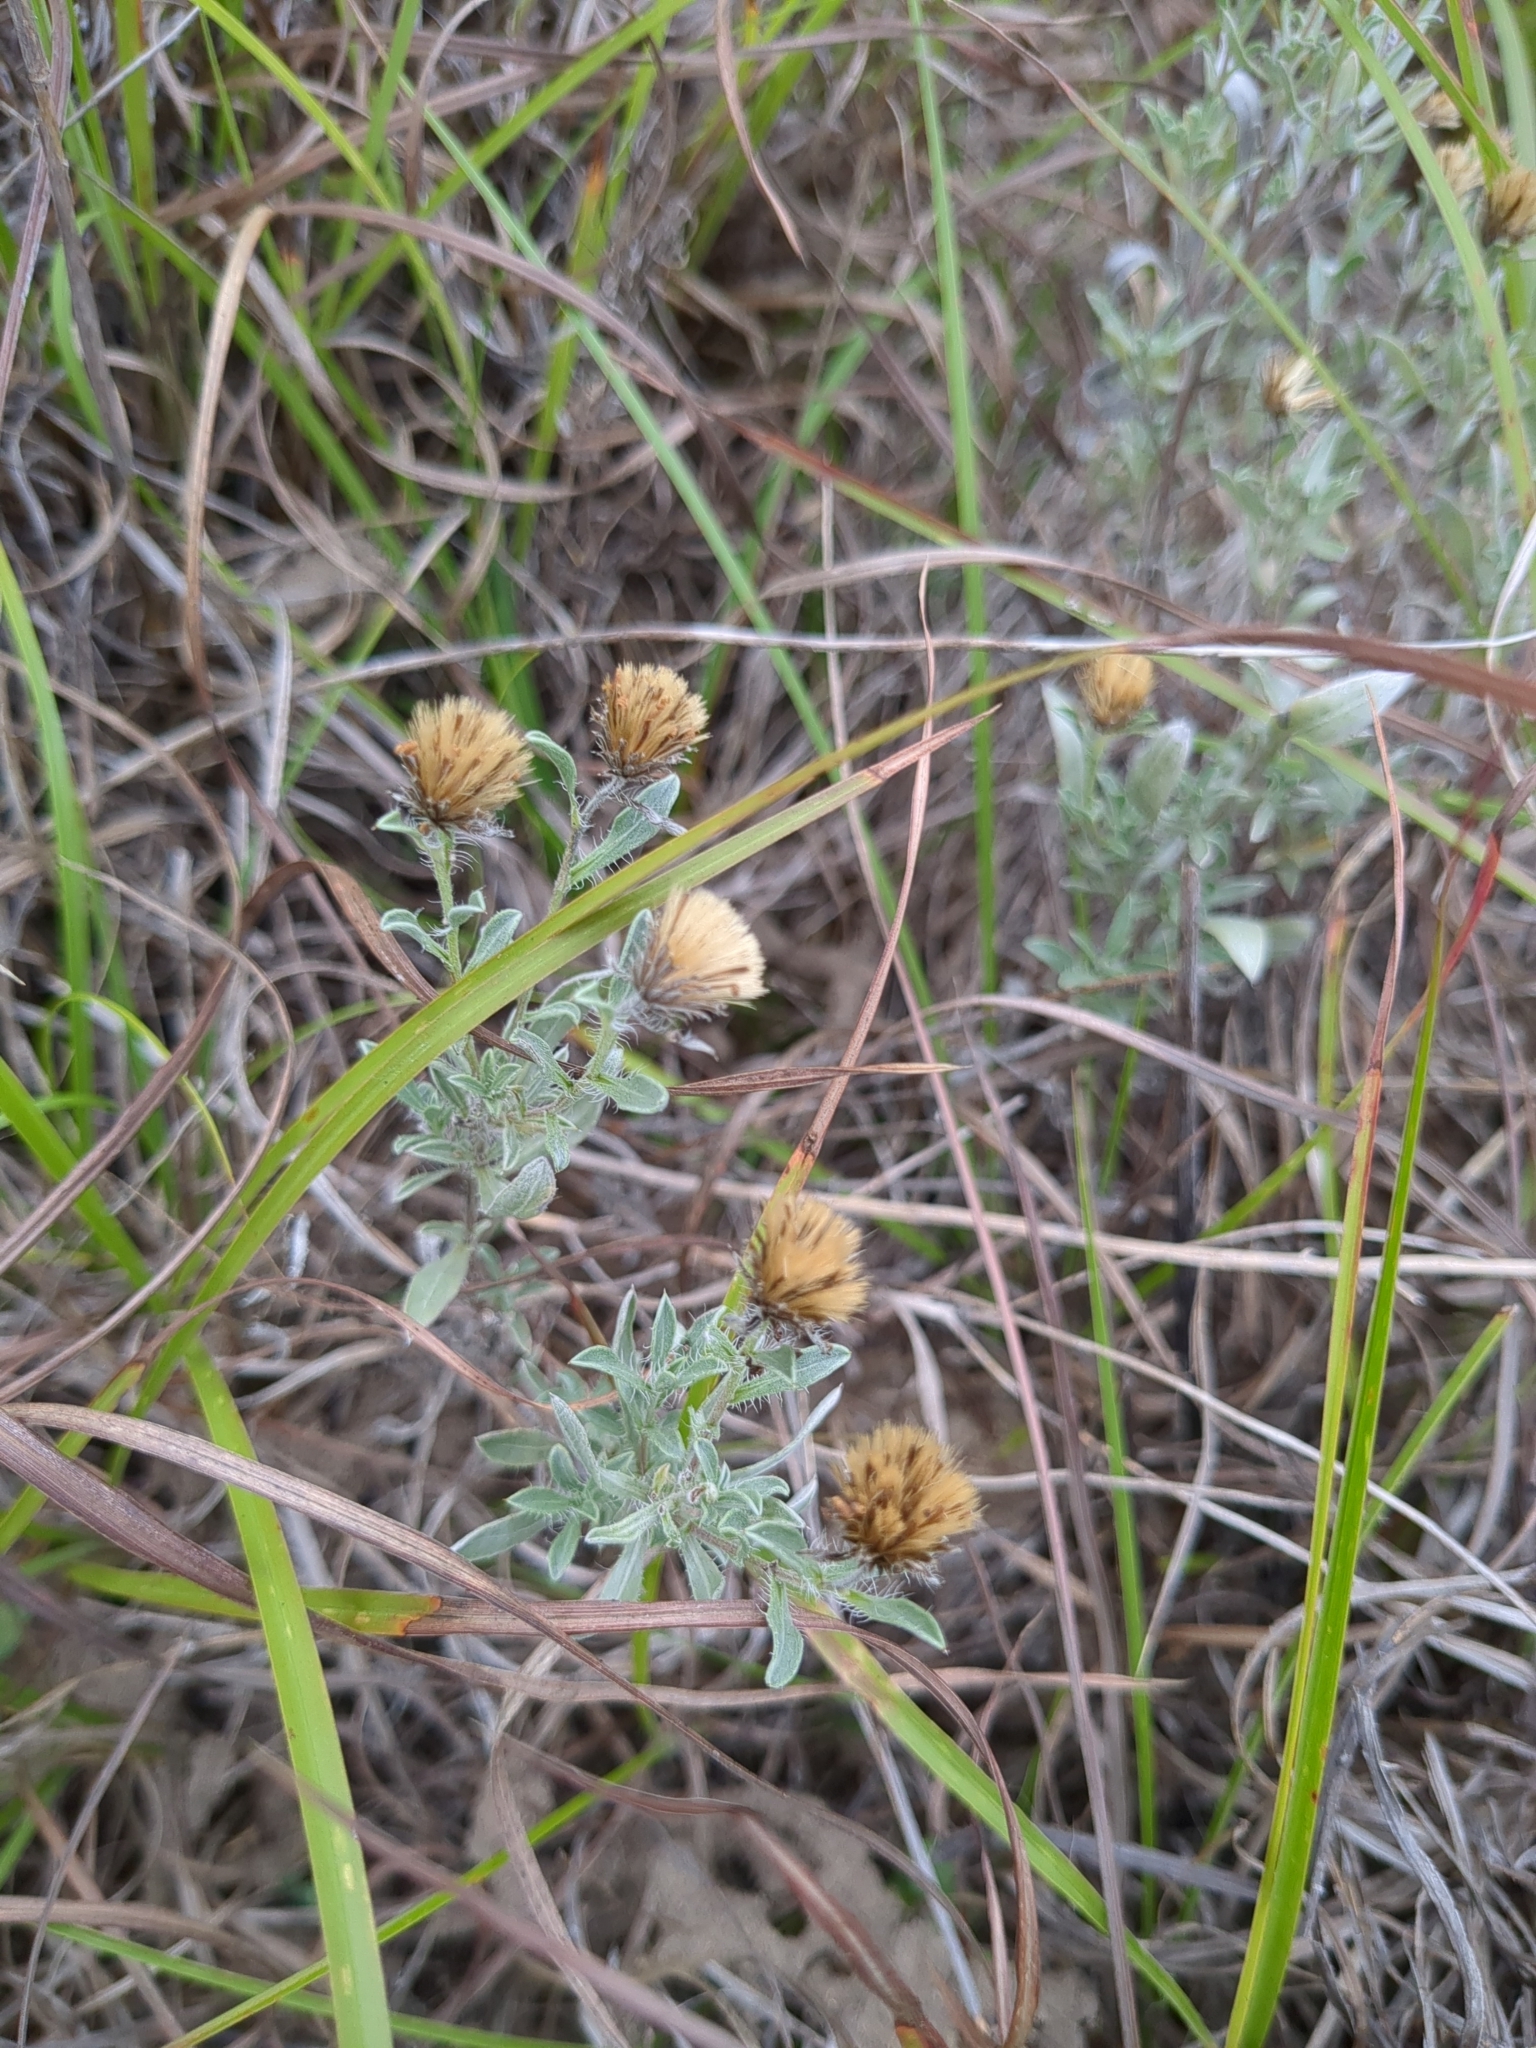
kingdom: Plantae
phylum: Tracheophyta
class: Magnoliopsida
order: Asterales
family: Asteraceae
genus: Heterotheca
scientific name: Heterotheca canescens
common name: Hoary golden-aster
